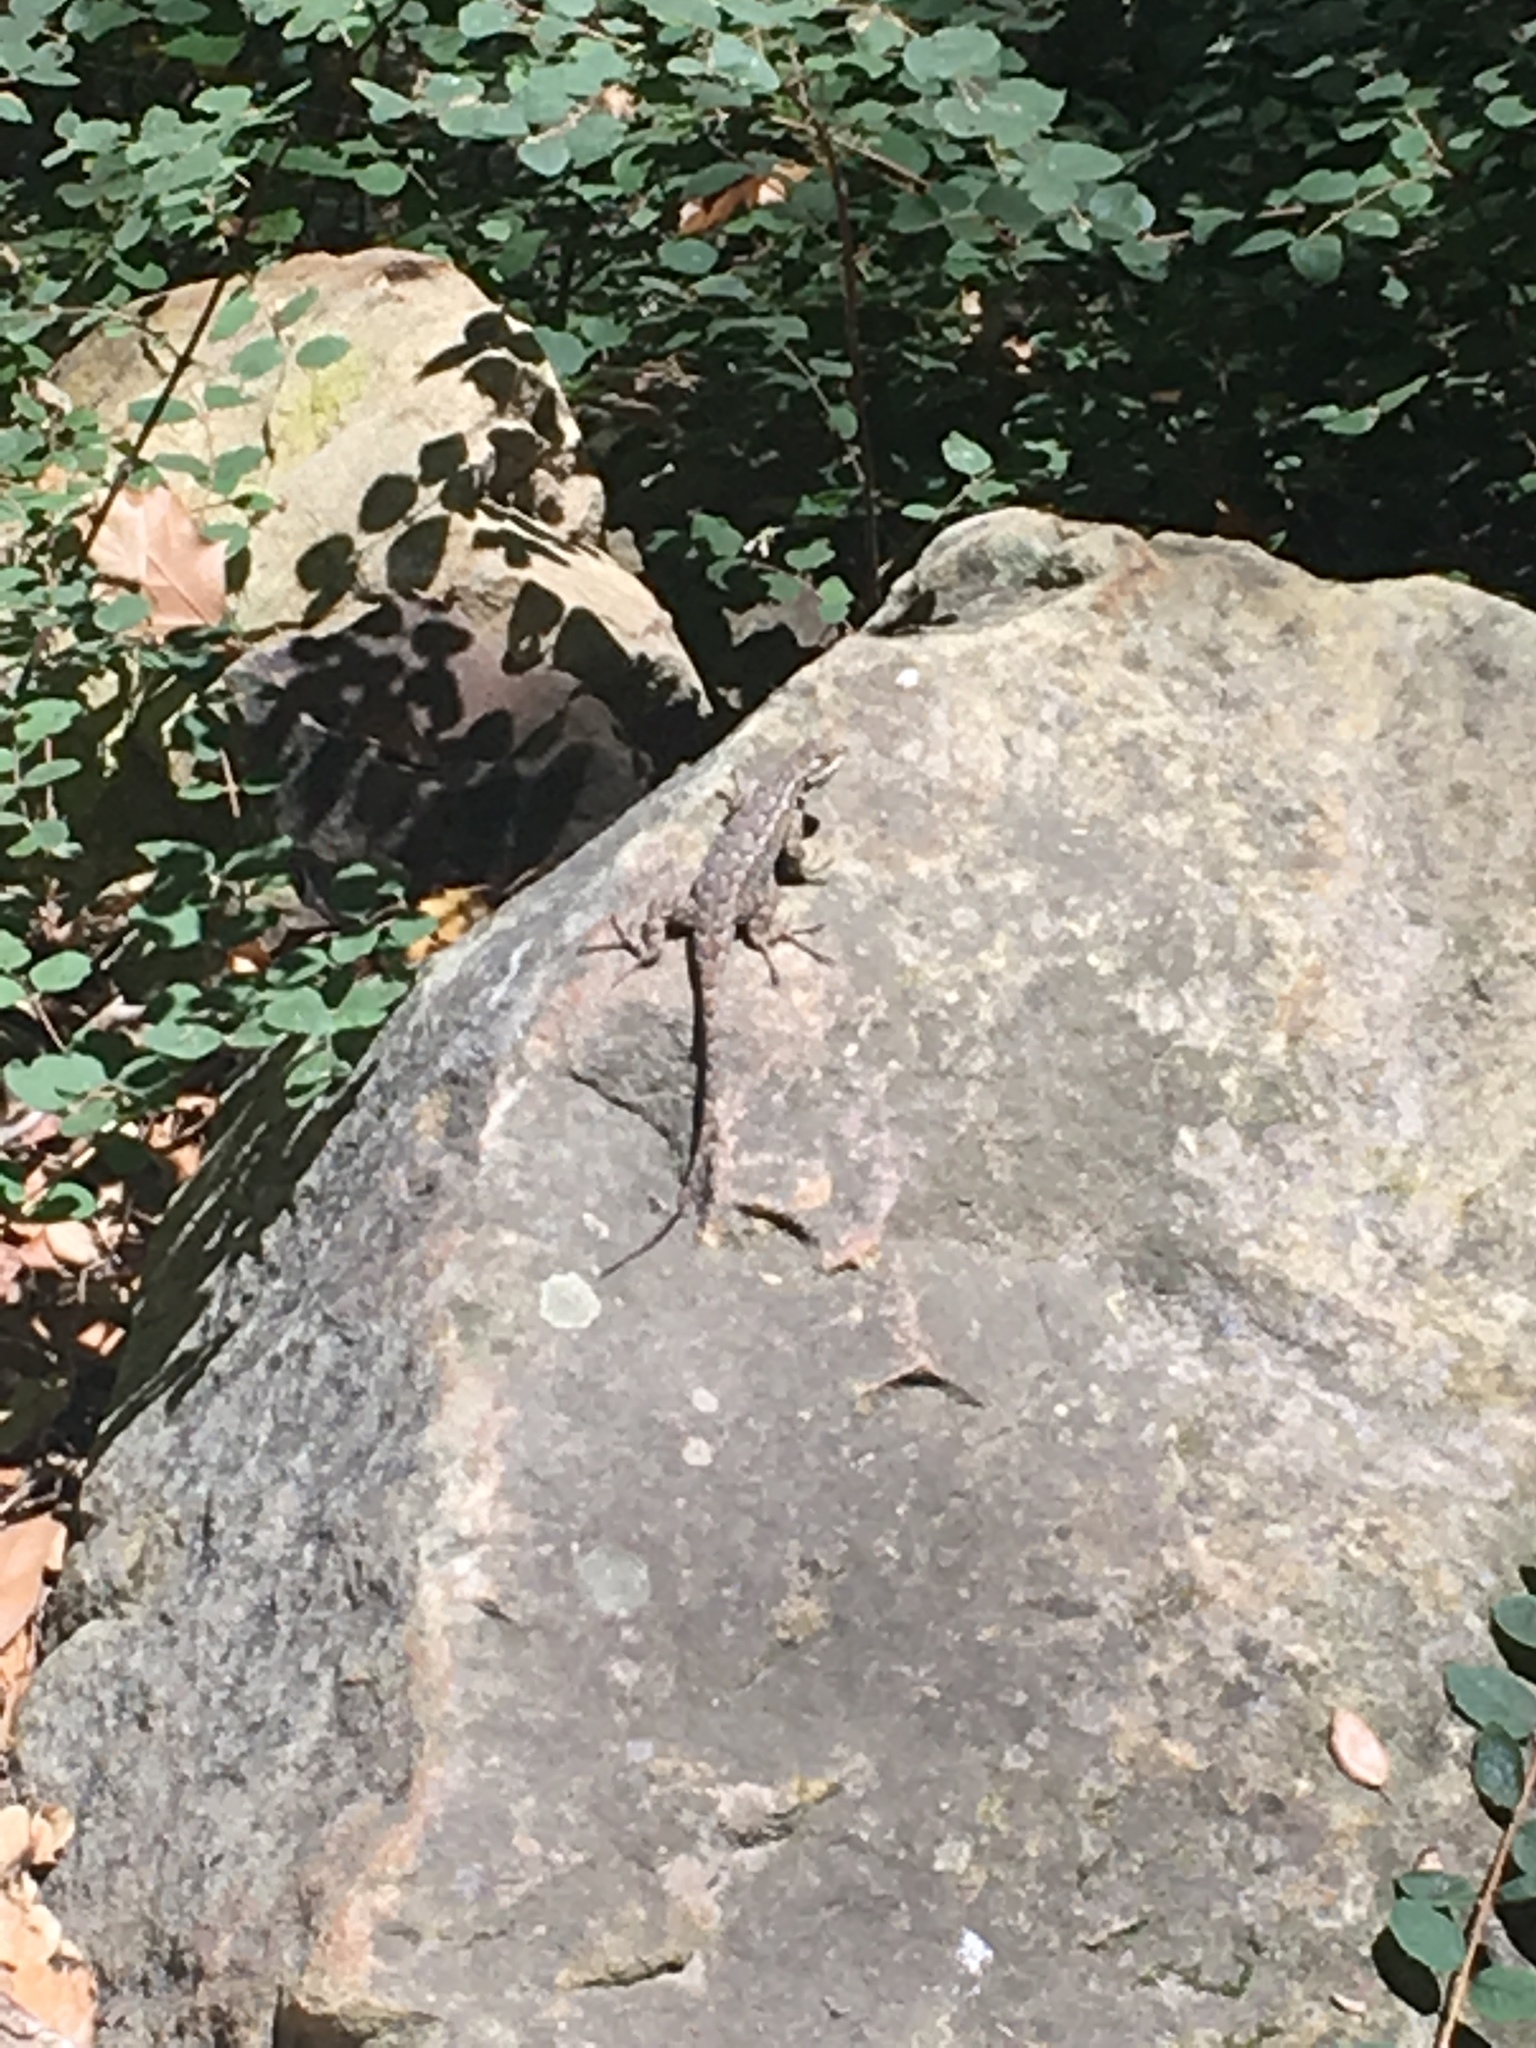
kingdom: Animalia
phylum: Chordata
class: Squamata
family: Phrynosomatidae
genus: Sceloporus
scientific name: Sceloporus occidentalis
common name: Western fence lizard
